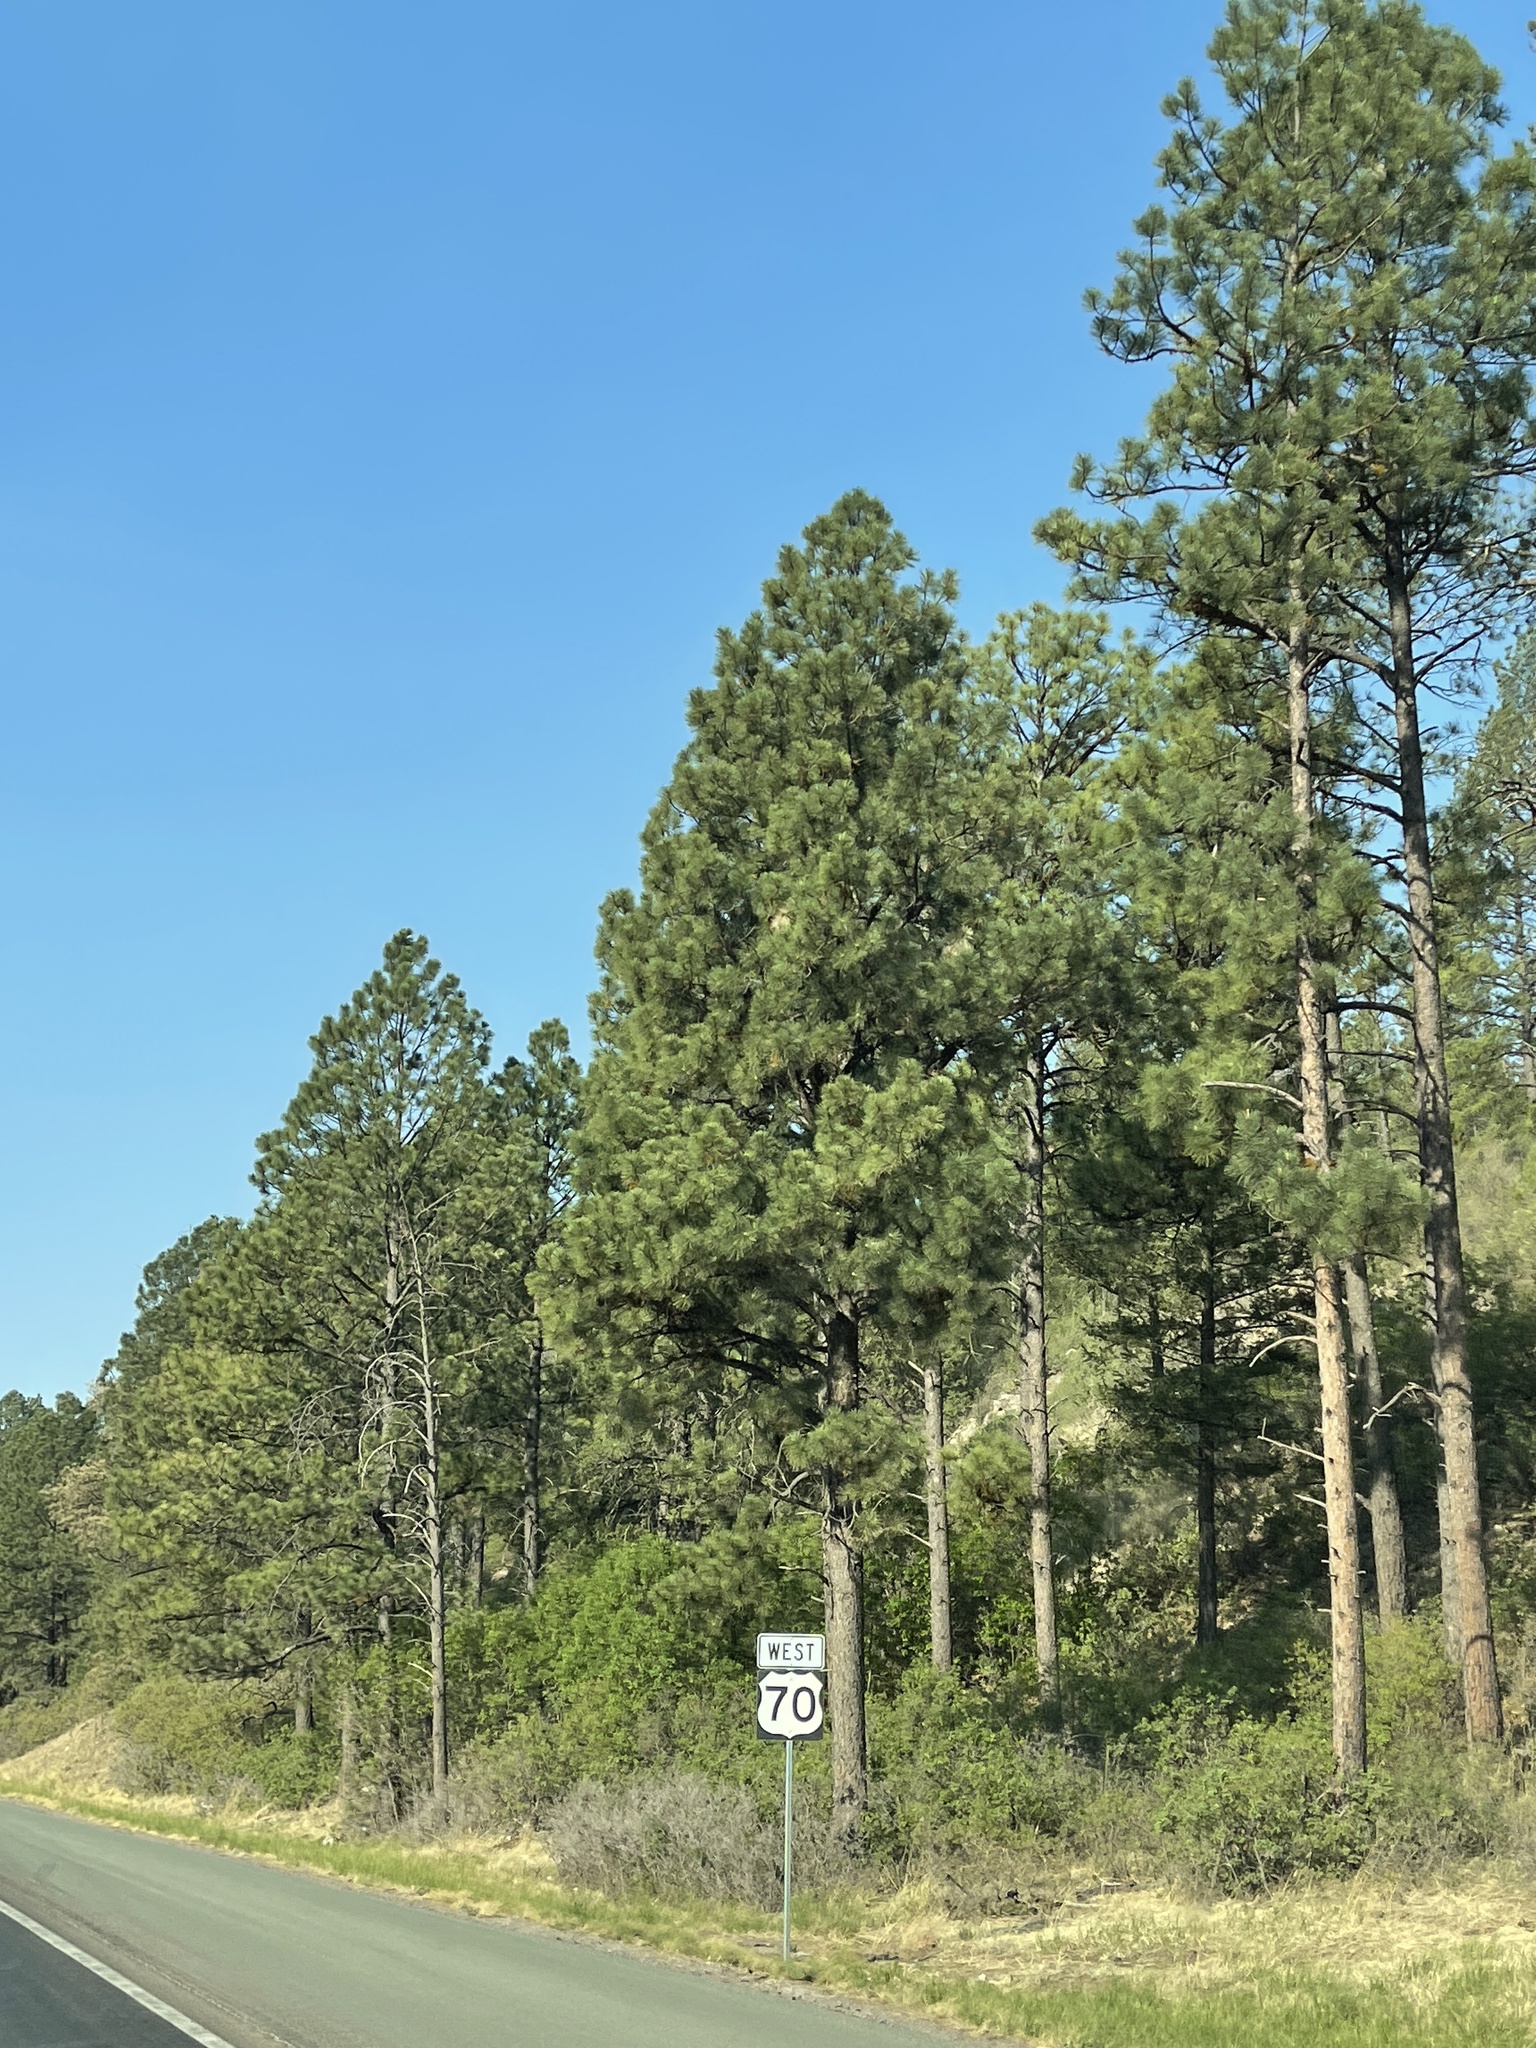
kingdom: Plantae
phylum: Tracheophyta
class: Pinopsida
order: Pinales
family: Pinaceae
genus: Pinus
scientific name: Pinus ponderosa
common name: Western yellow-pine
